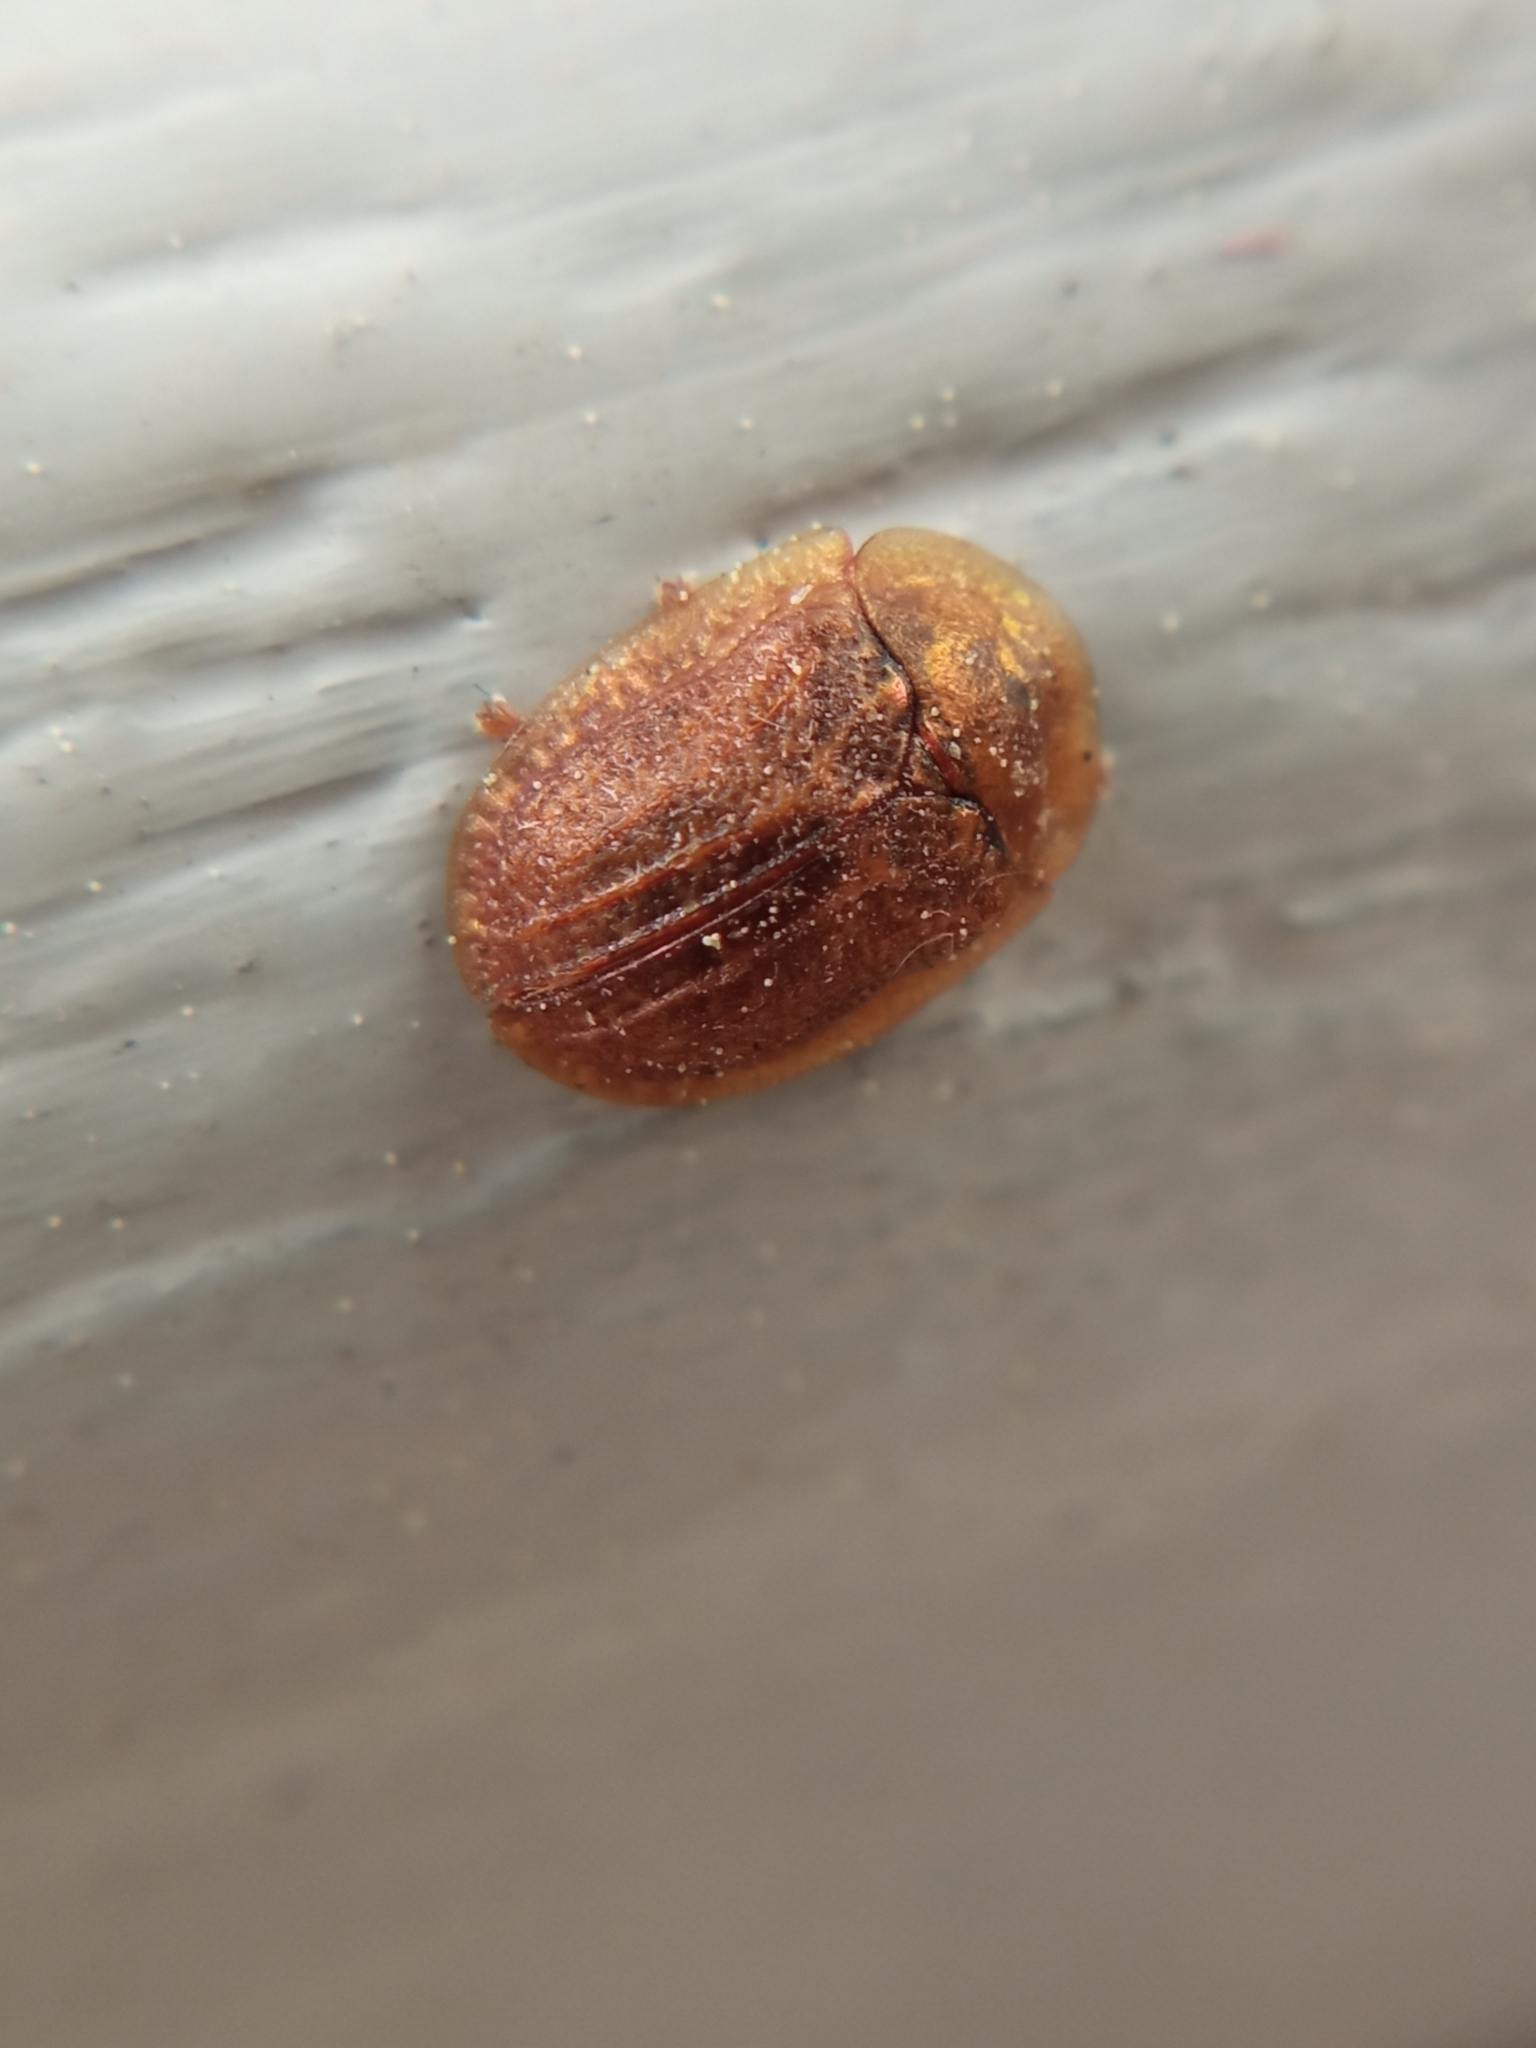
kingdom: Animalia
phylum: Arthropoda
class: Insecta
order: Coleoptera
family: Chrysomelidae
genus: Hypocassida
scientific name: Hypocassida subferruginea
